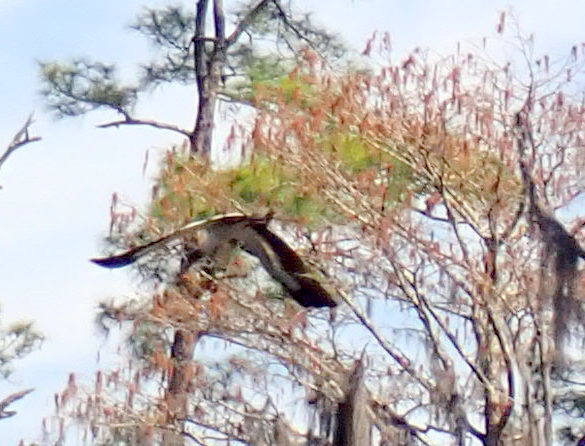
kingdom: Animalia
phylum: Chordata
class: Aves
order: Ciconiiformes
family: Ciconiidae
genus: Mycteria
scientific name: Mycteria americana
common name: Wood stork
